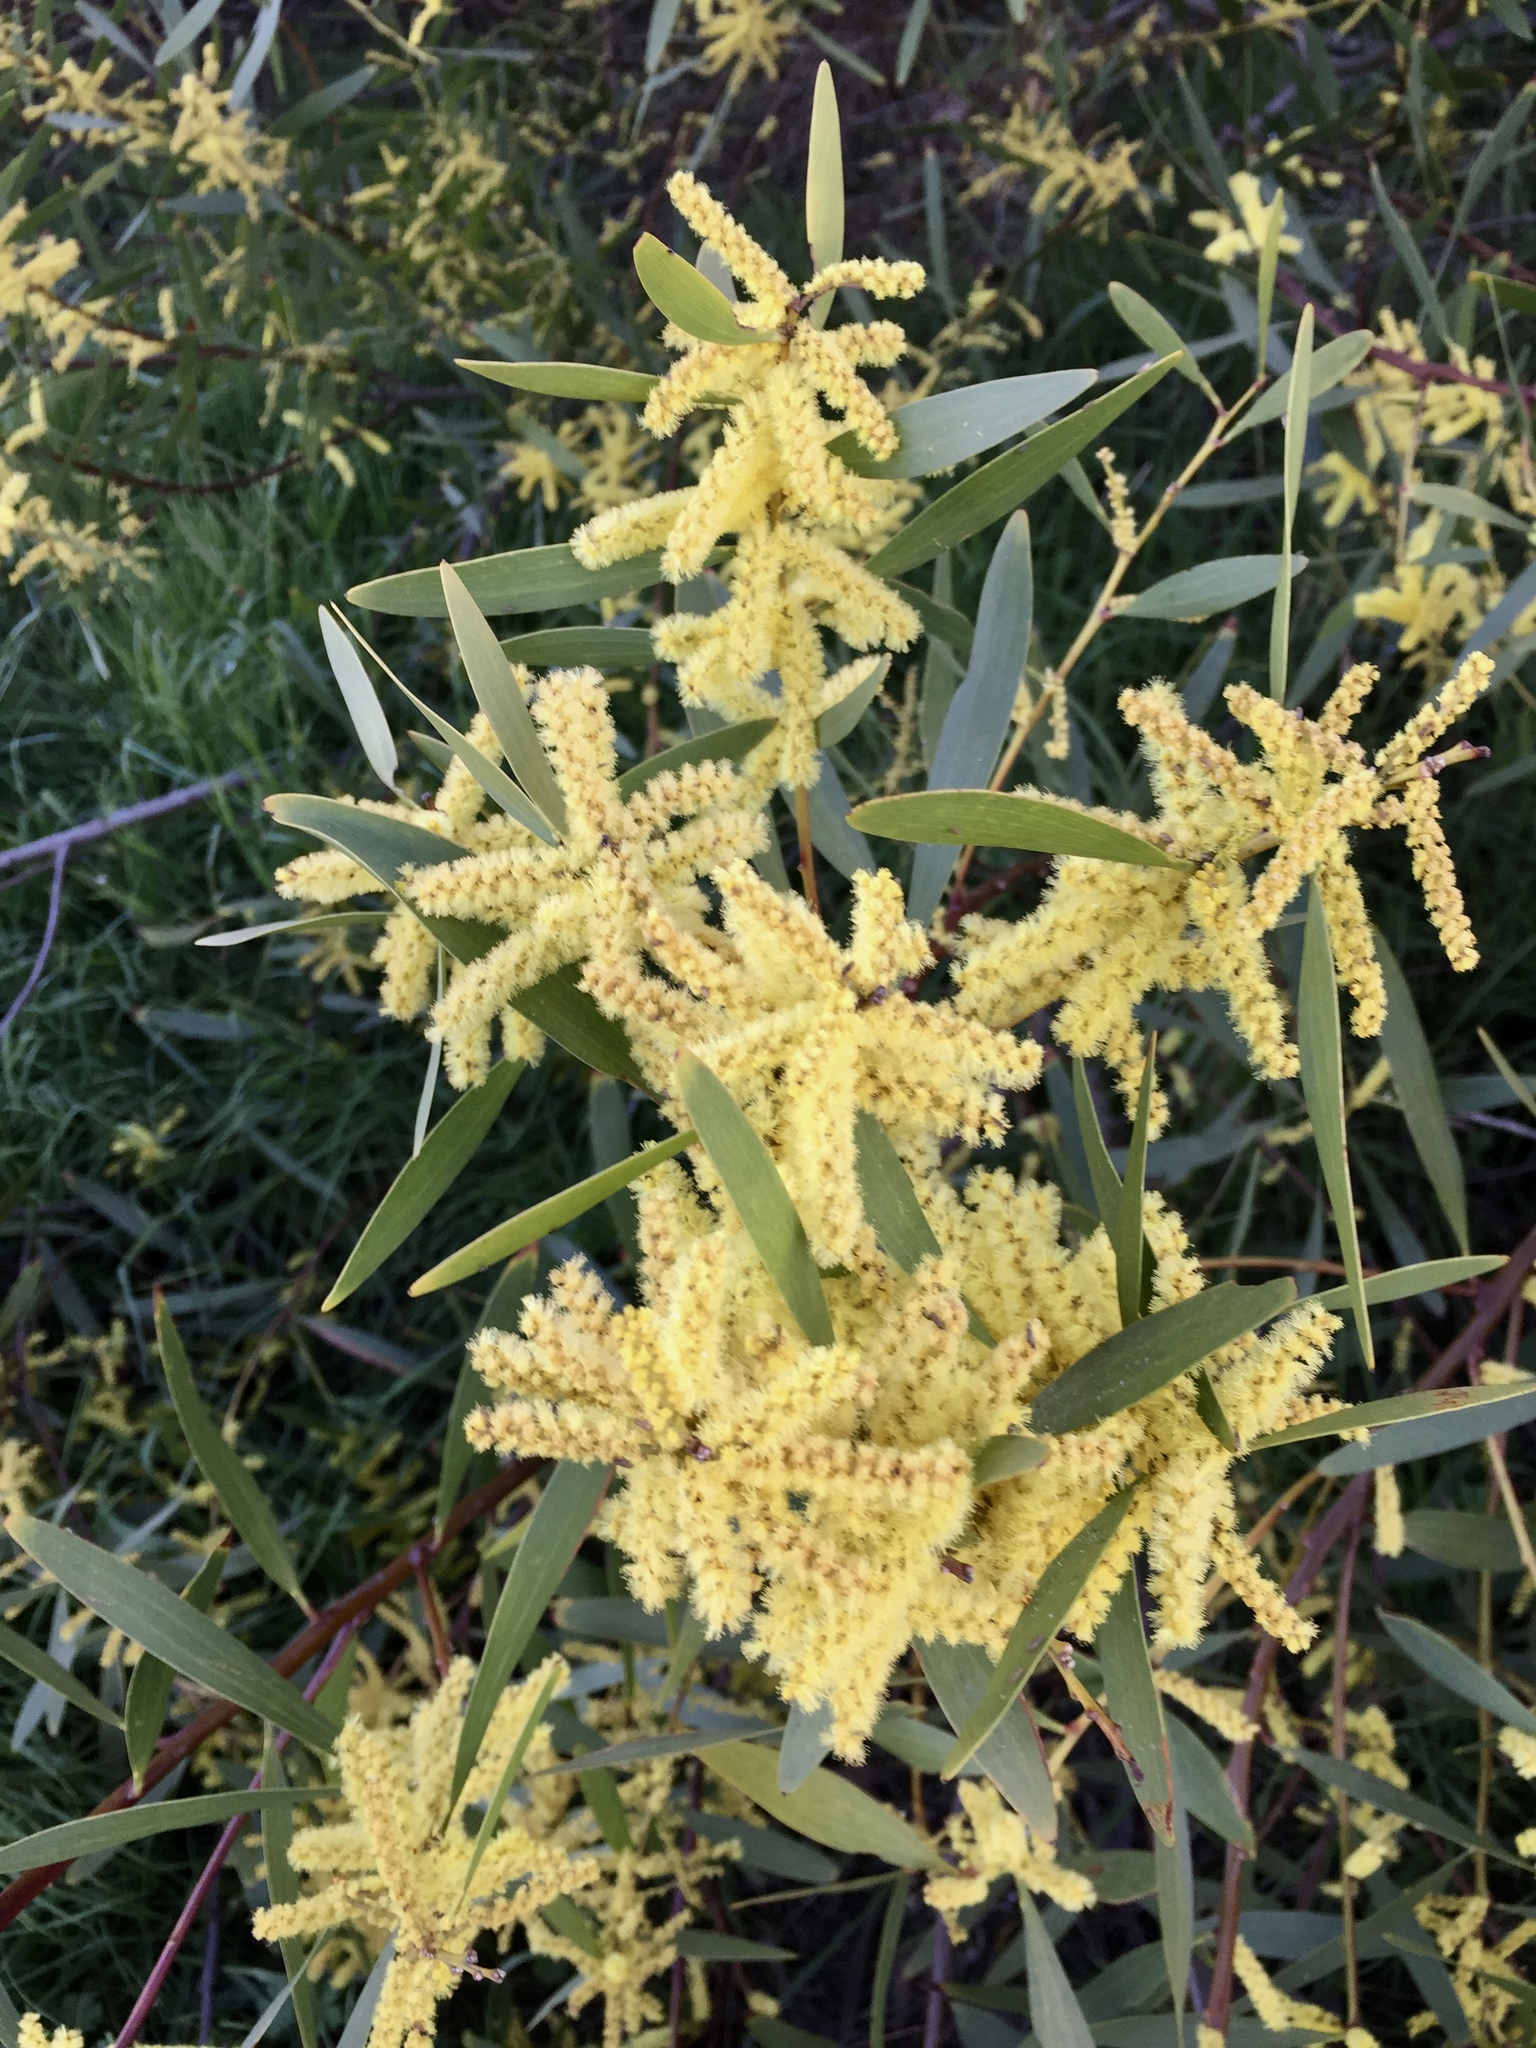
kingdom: Plantae
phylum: Tracheophyta
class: Magnoliopsida
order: Fabales
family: Fabaceae
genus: Acacia
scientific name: Acacia longifolia
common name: Sydney golden wattle
